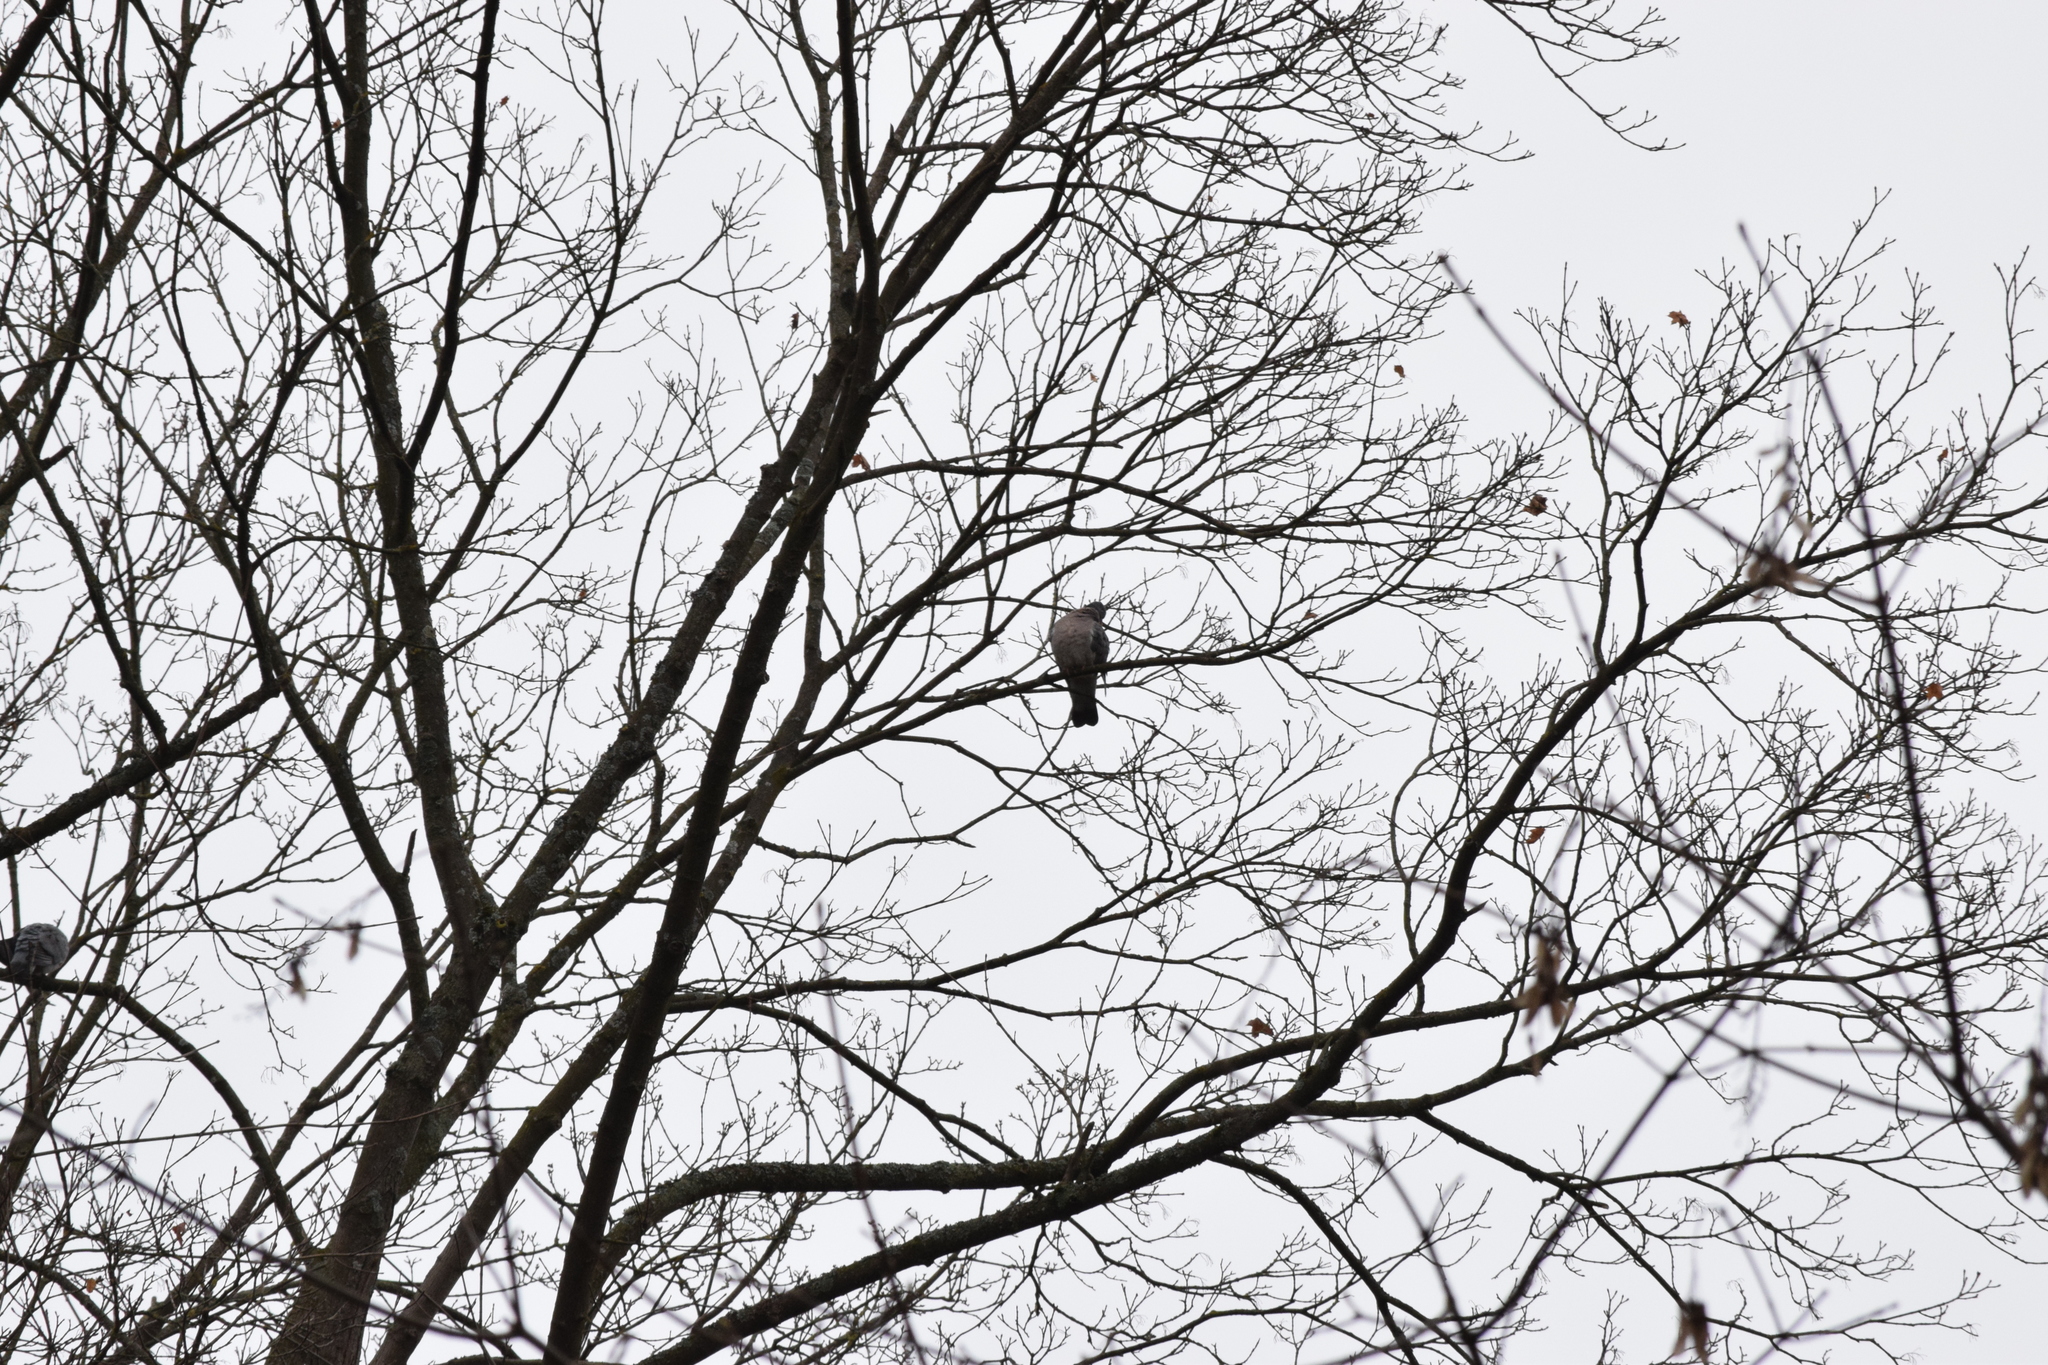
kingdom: Animalia
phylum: Chordata
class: Aves
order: Columbiformes
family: Columbidae
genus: Columba
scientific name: Columba palumbus
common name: Common wood pigeon
